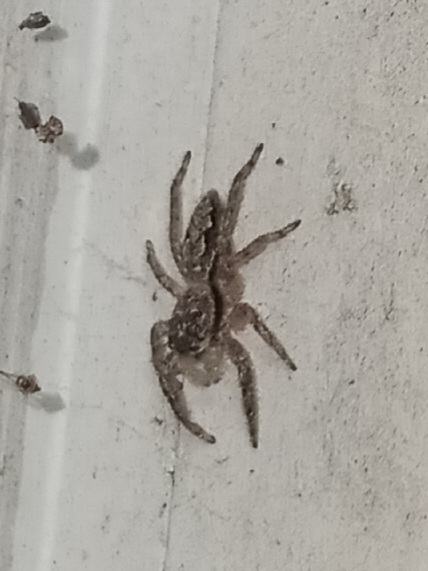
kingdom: Animalia
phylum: Arthropoda
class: Arachnida
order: Araneae
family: Salticidae
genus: Platycryptus
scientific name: Platycryptus undatus
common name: Tan jumping spider
